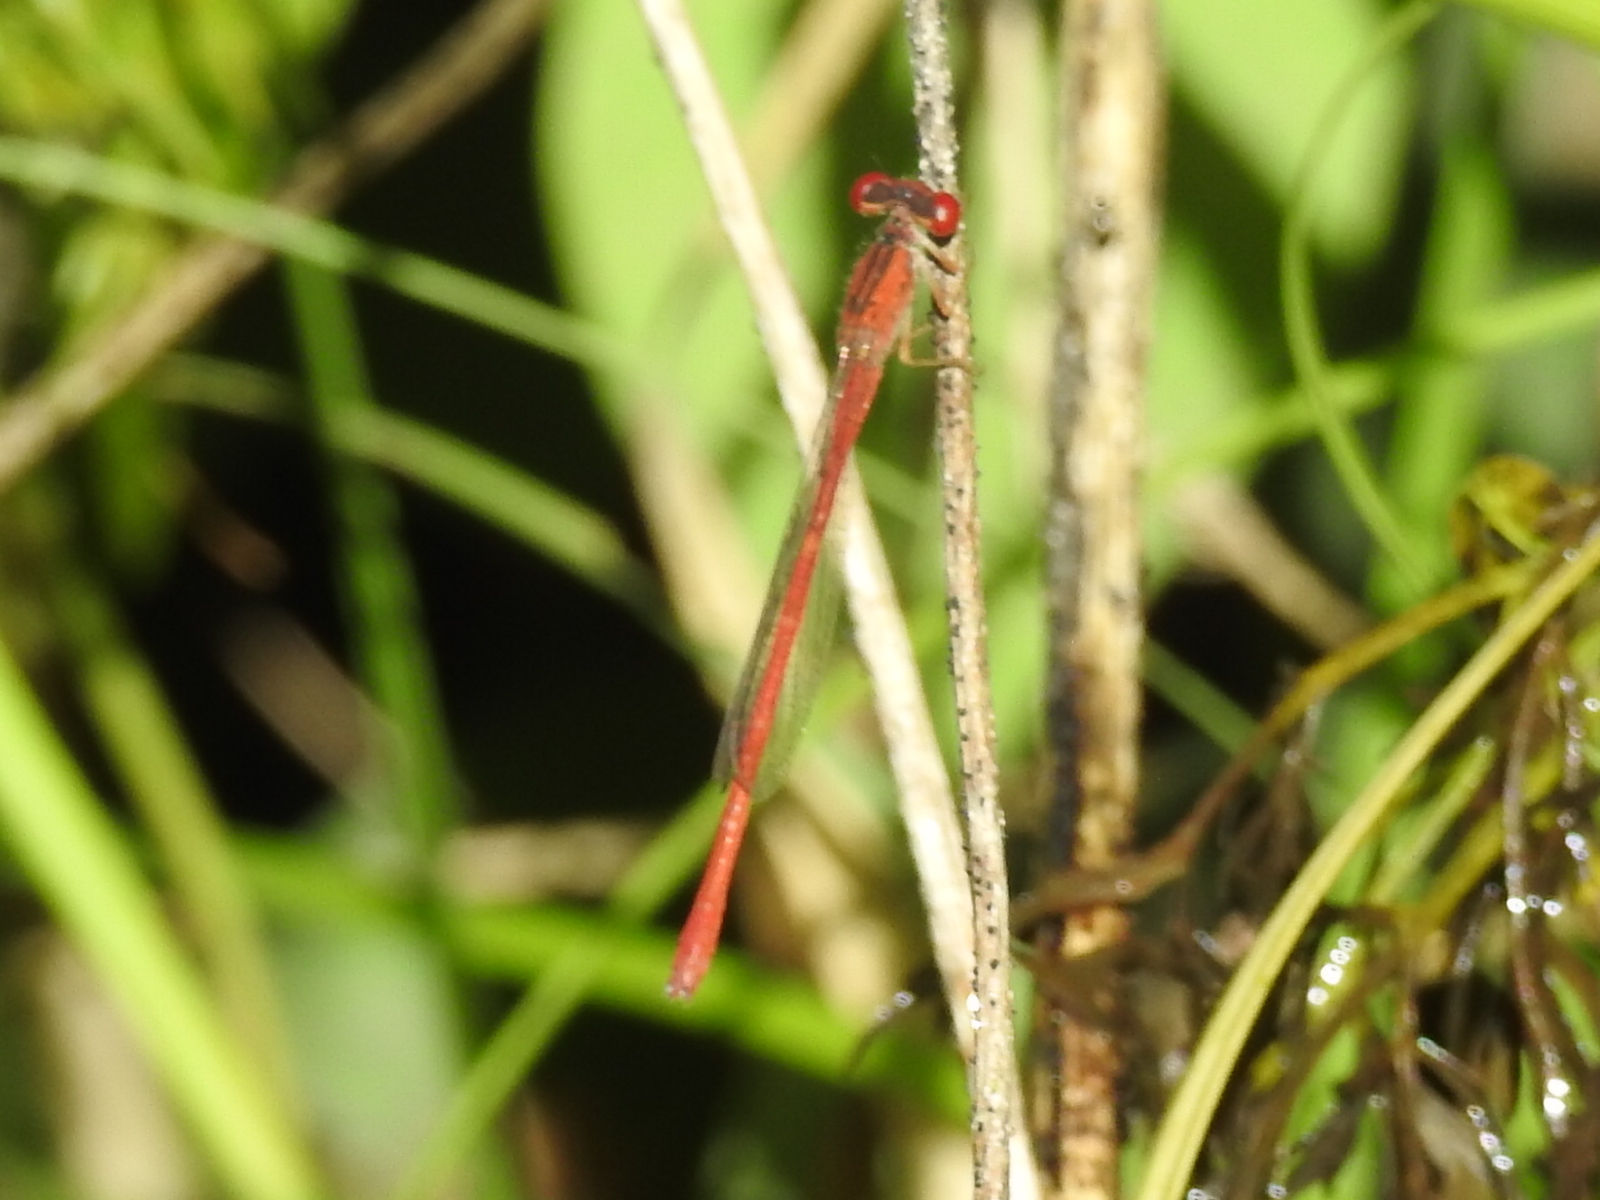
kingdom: Animalia
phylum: Arthropoda
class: Insecta
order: Odonata
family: Coenagrionidae
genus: Telebasis
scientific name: Telebasis salva
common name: Desert firetail
